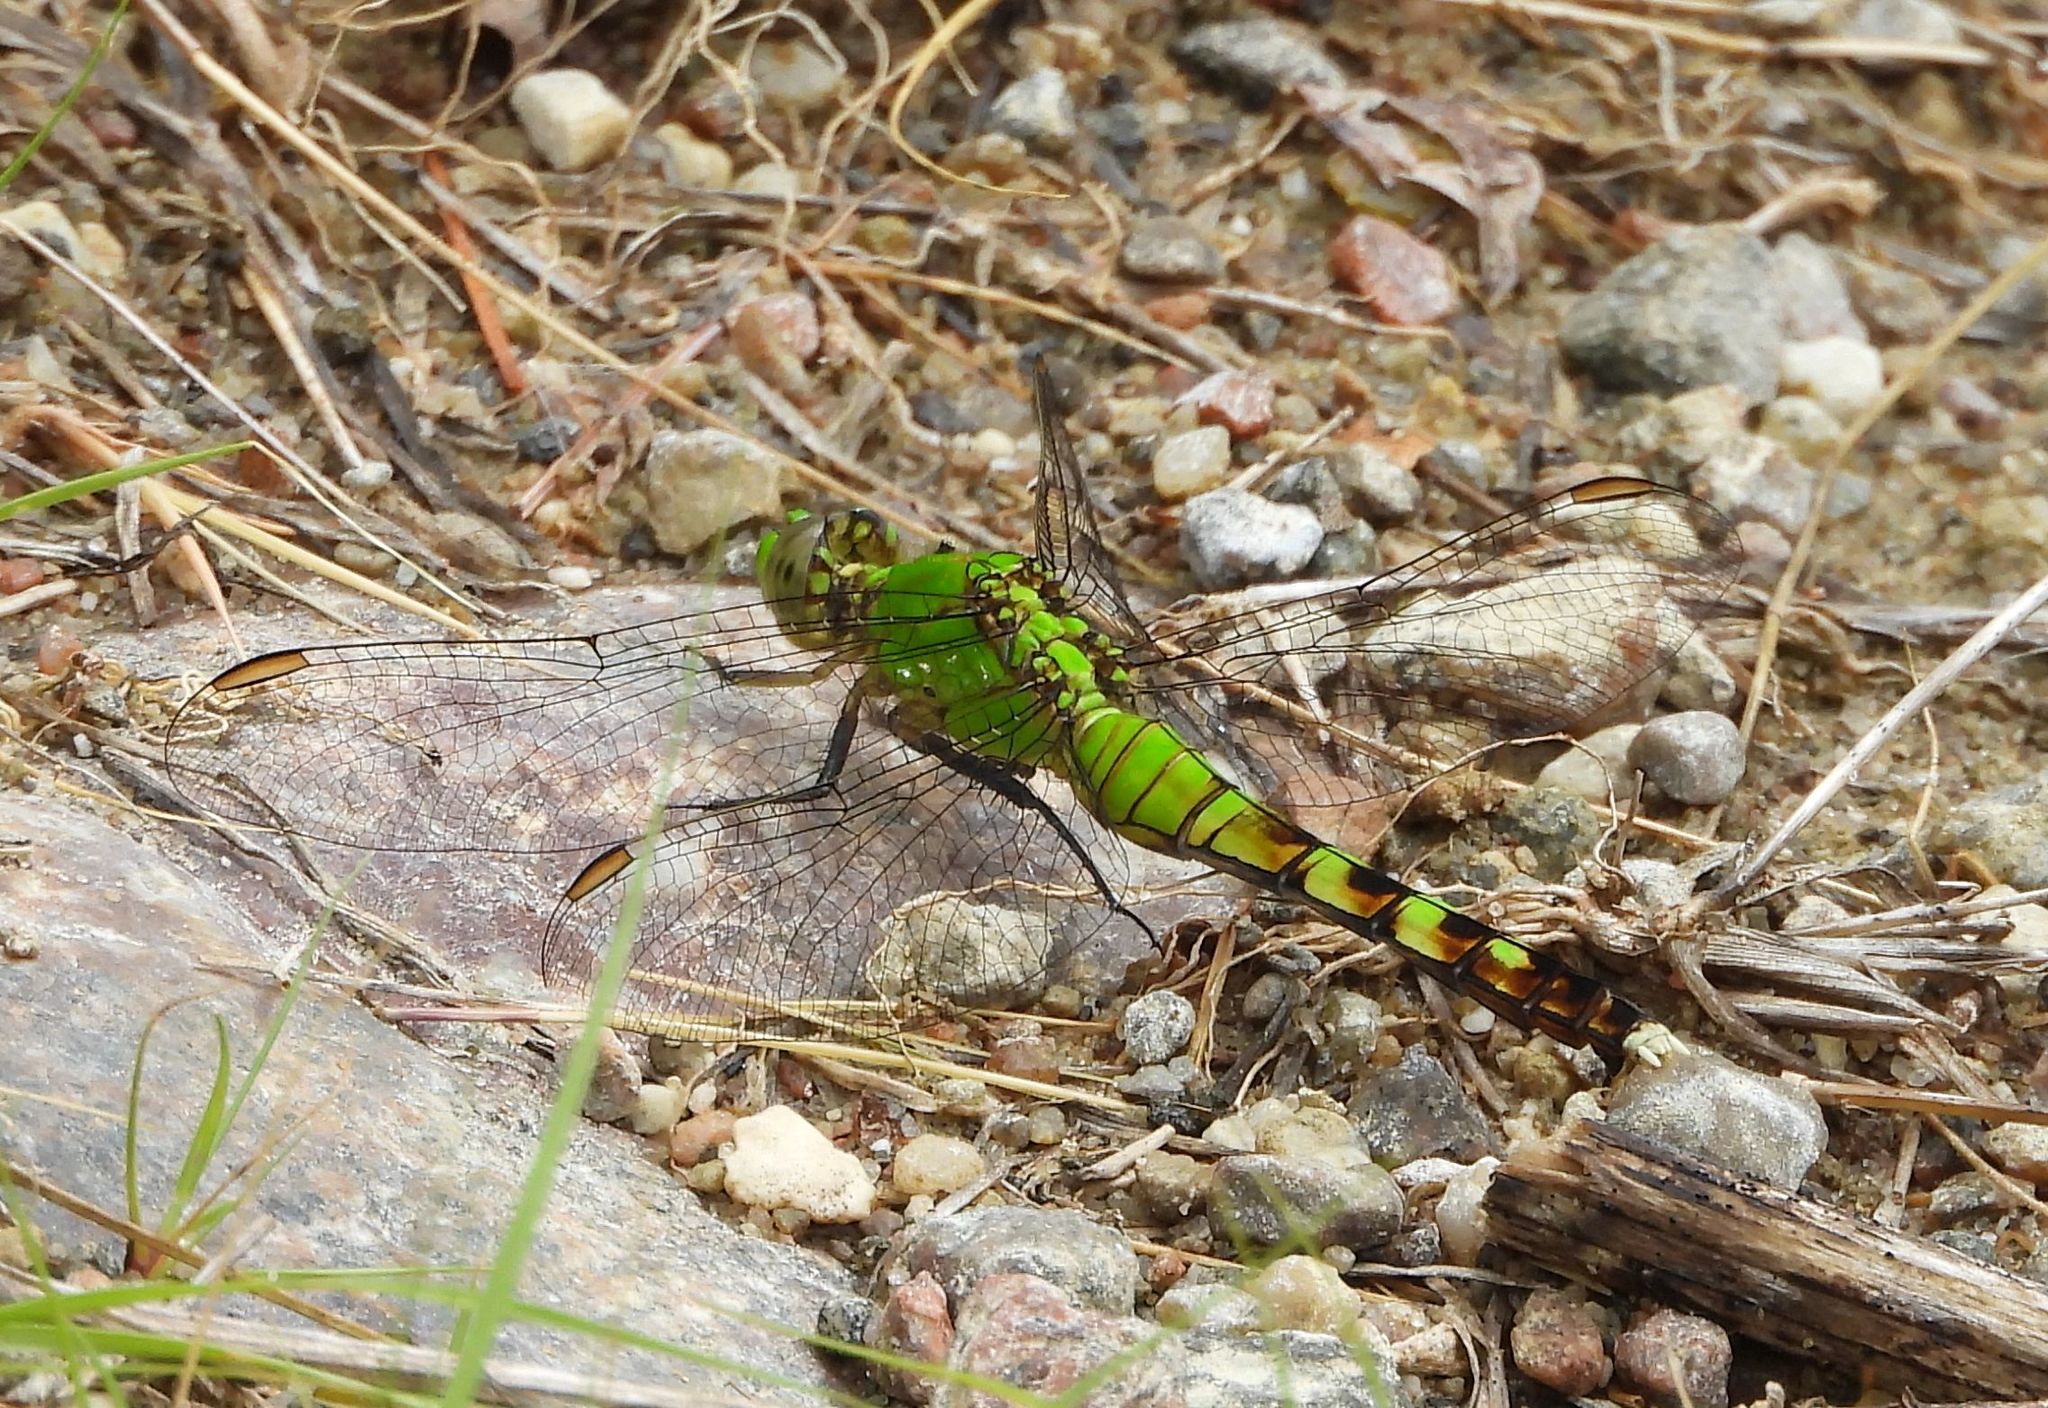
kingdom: Animalia
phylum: Arthropoda
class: Insecta
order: Odonata
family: Libellulidae
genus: Erythemis
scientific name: Erythemis simplicicollis
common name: Eastern pondhawk
